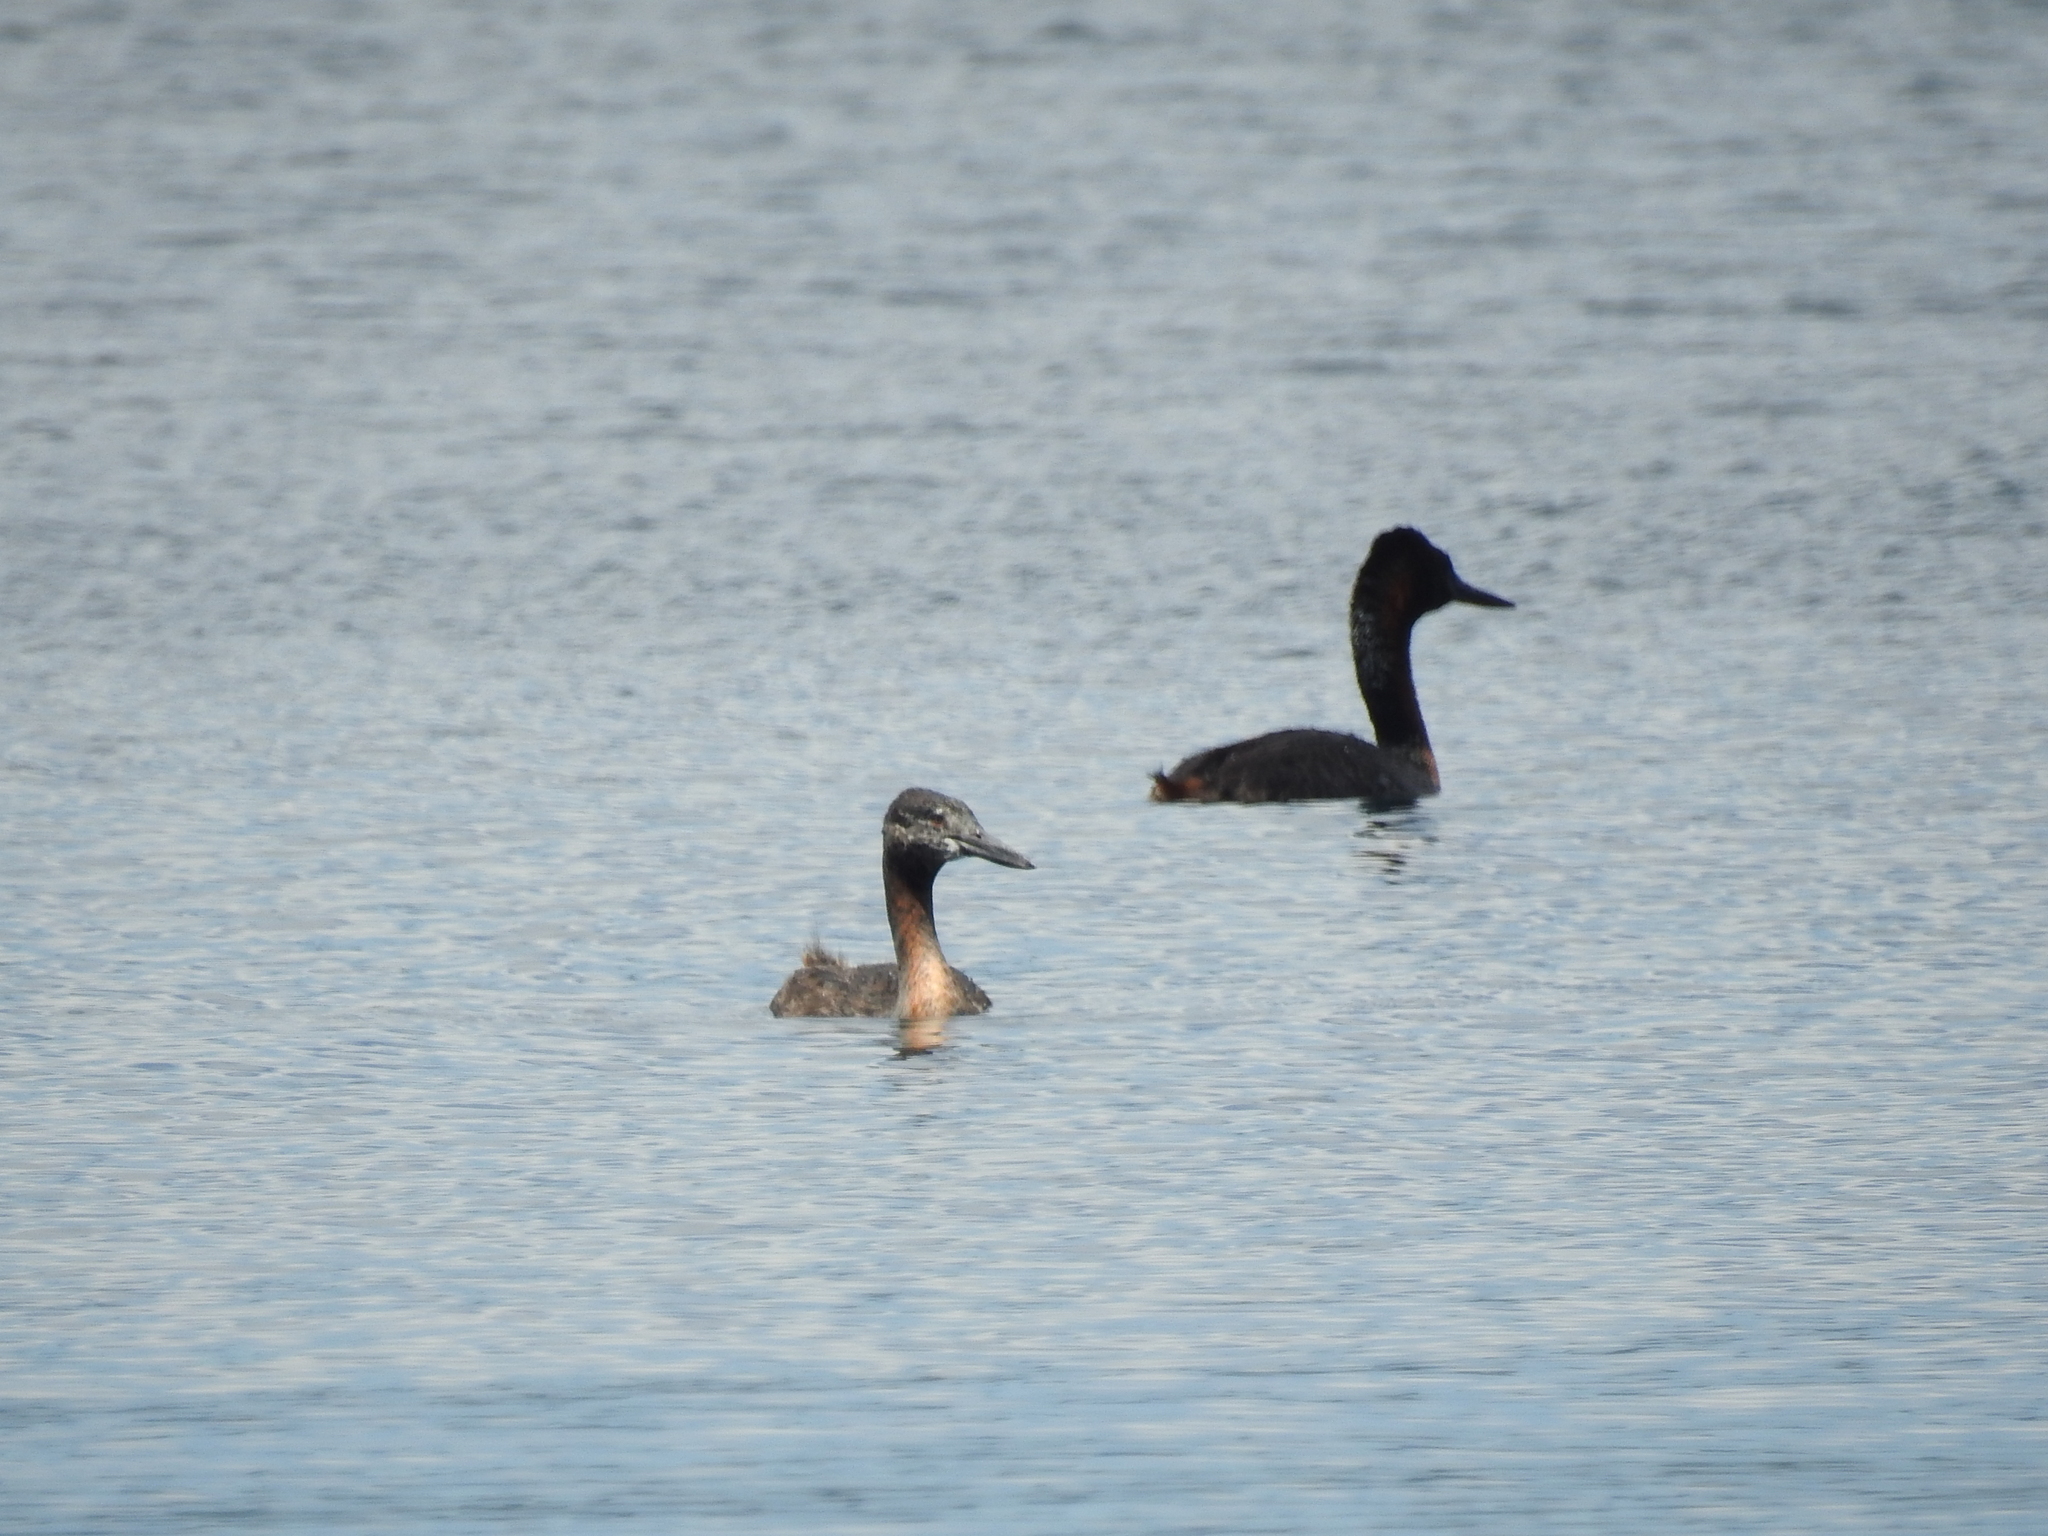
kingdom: Animalia
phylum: Chordata
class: Aves
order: Podicipediformes
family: Podicipedidae
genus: Podiceps
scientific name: Podiceps major
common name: Great grebe
